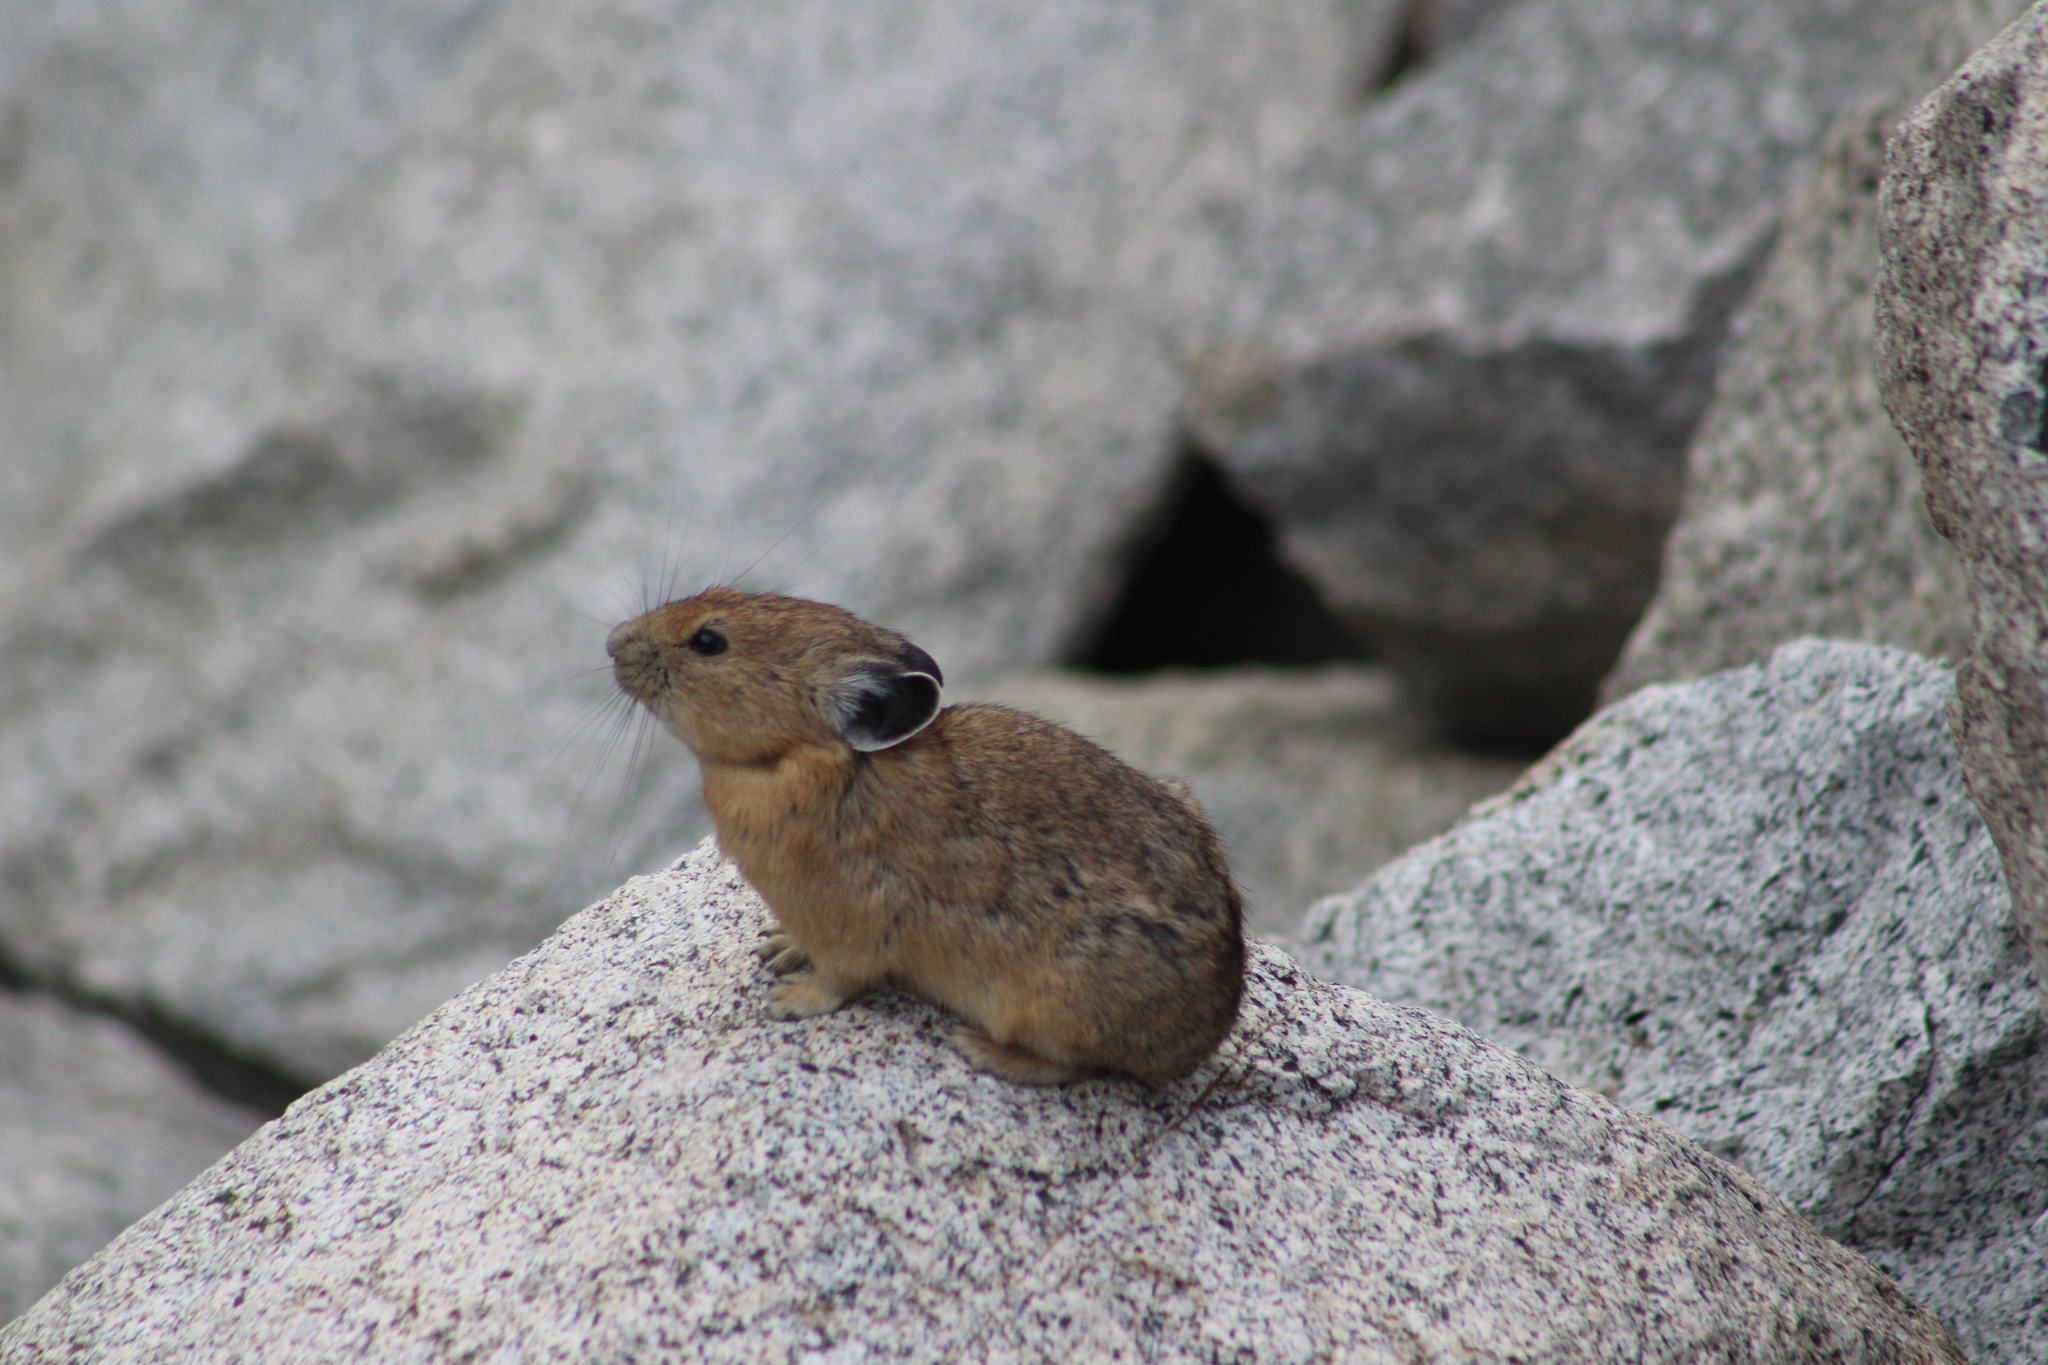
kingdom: Animalia
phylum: Chordata
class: Mammalia
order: Lagomorpha
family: Ochotonidae
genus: Ochotona
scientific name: Ochotona princeps
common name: American pika
